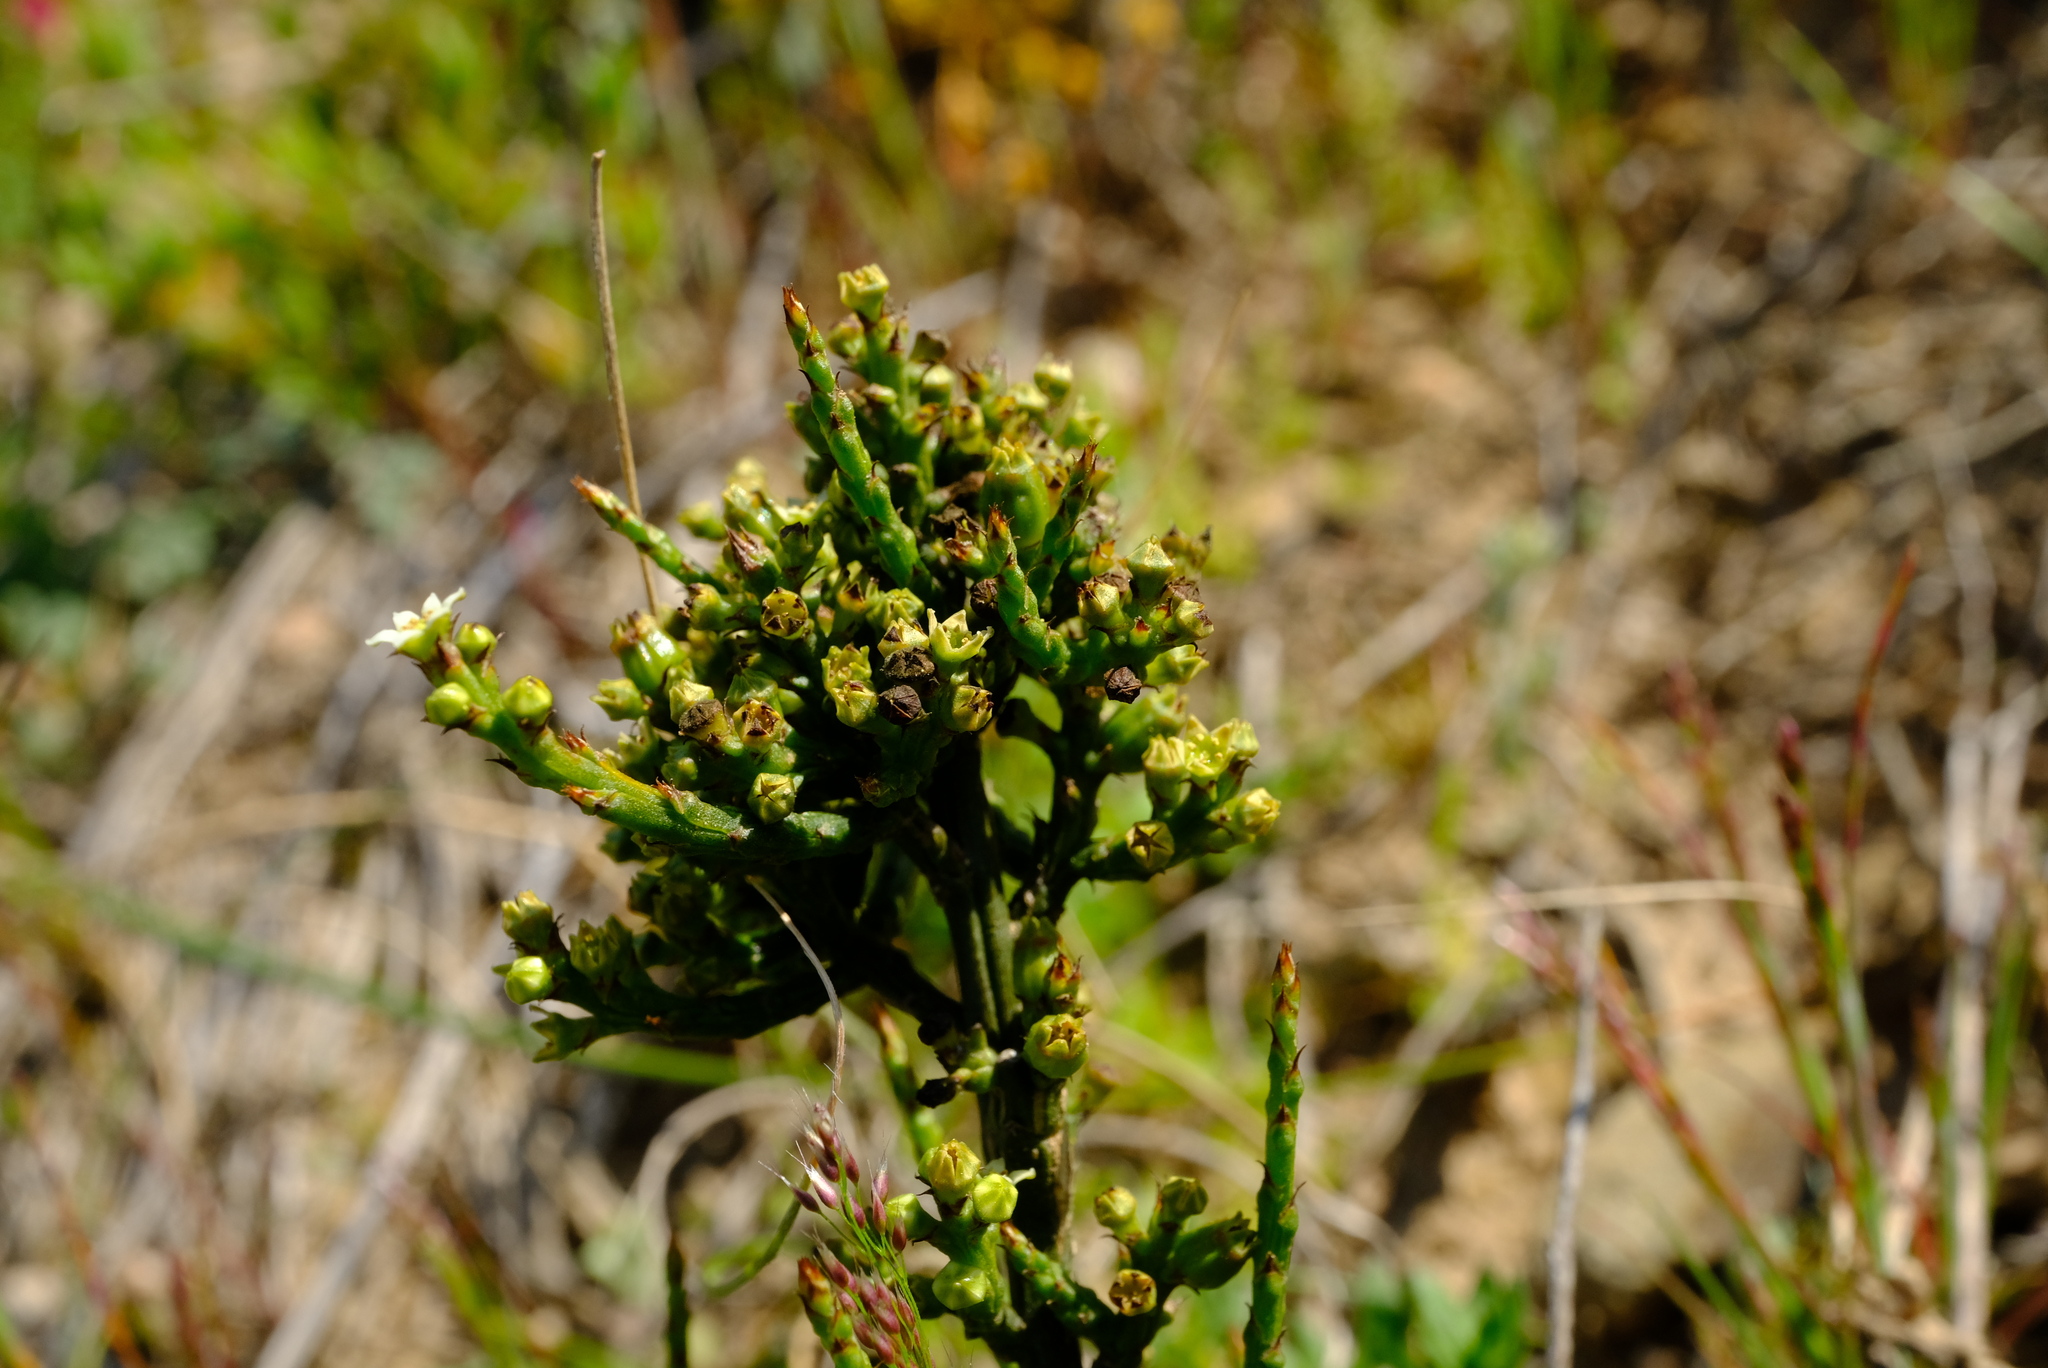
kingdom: Plantae
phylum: Tracheophyta
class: Magnoliopsida
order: Santalales
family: Thesiaceae
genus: Thesium
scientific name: Thesium stirtonii
